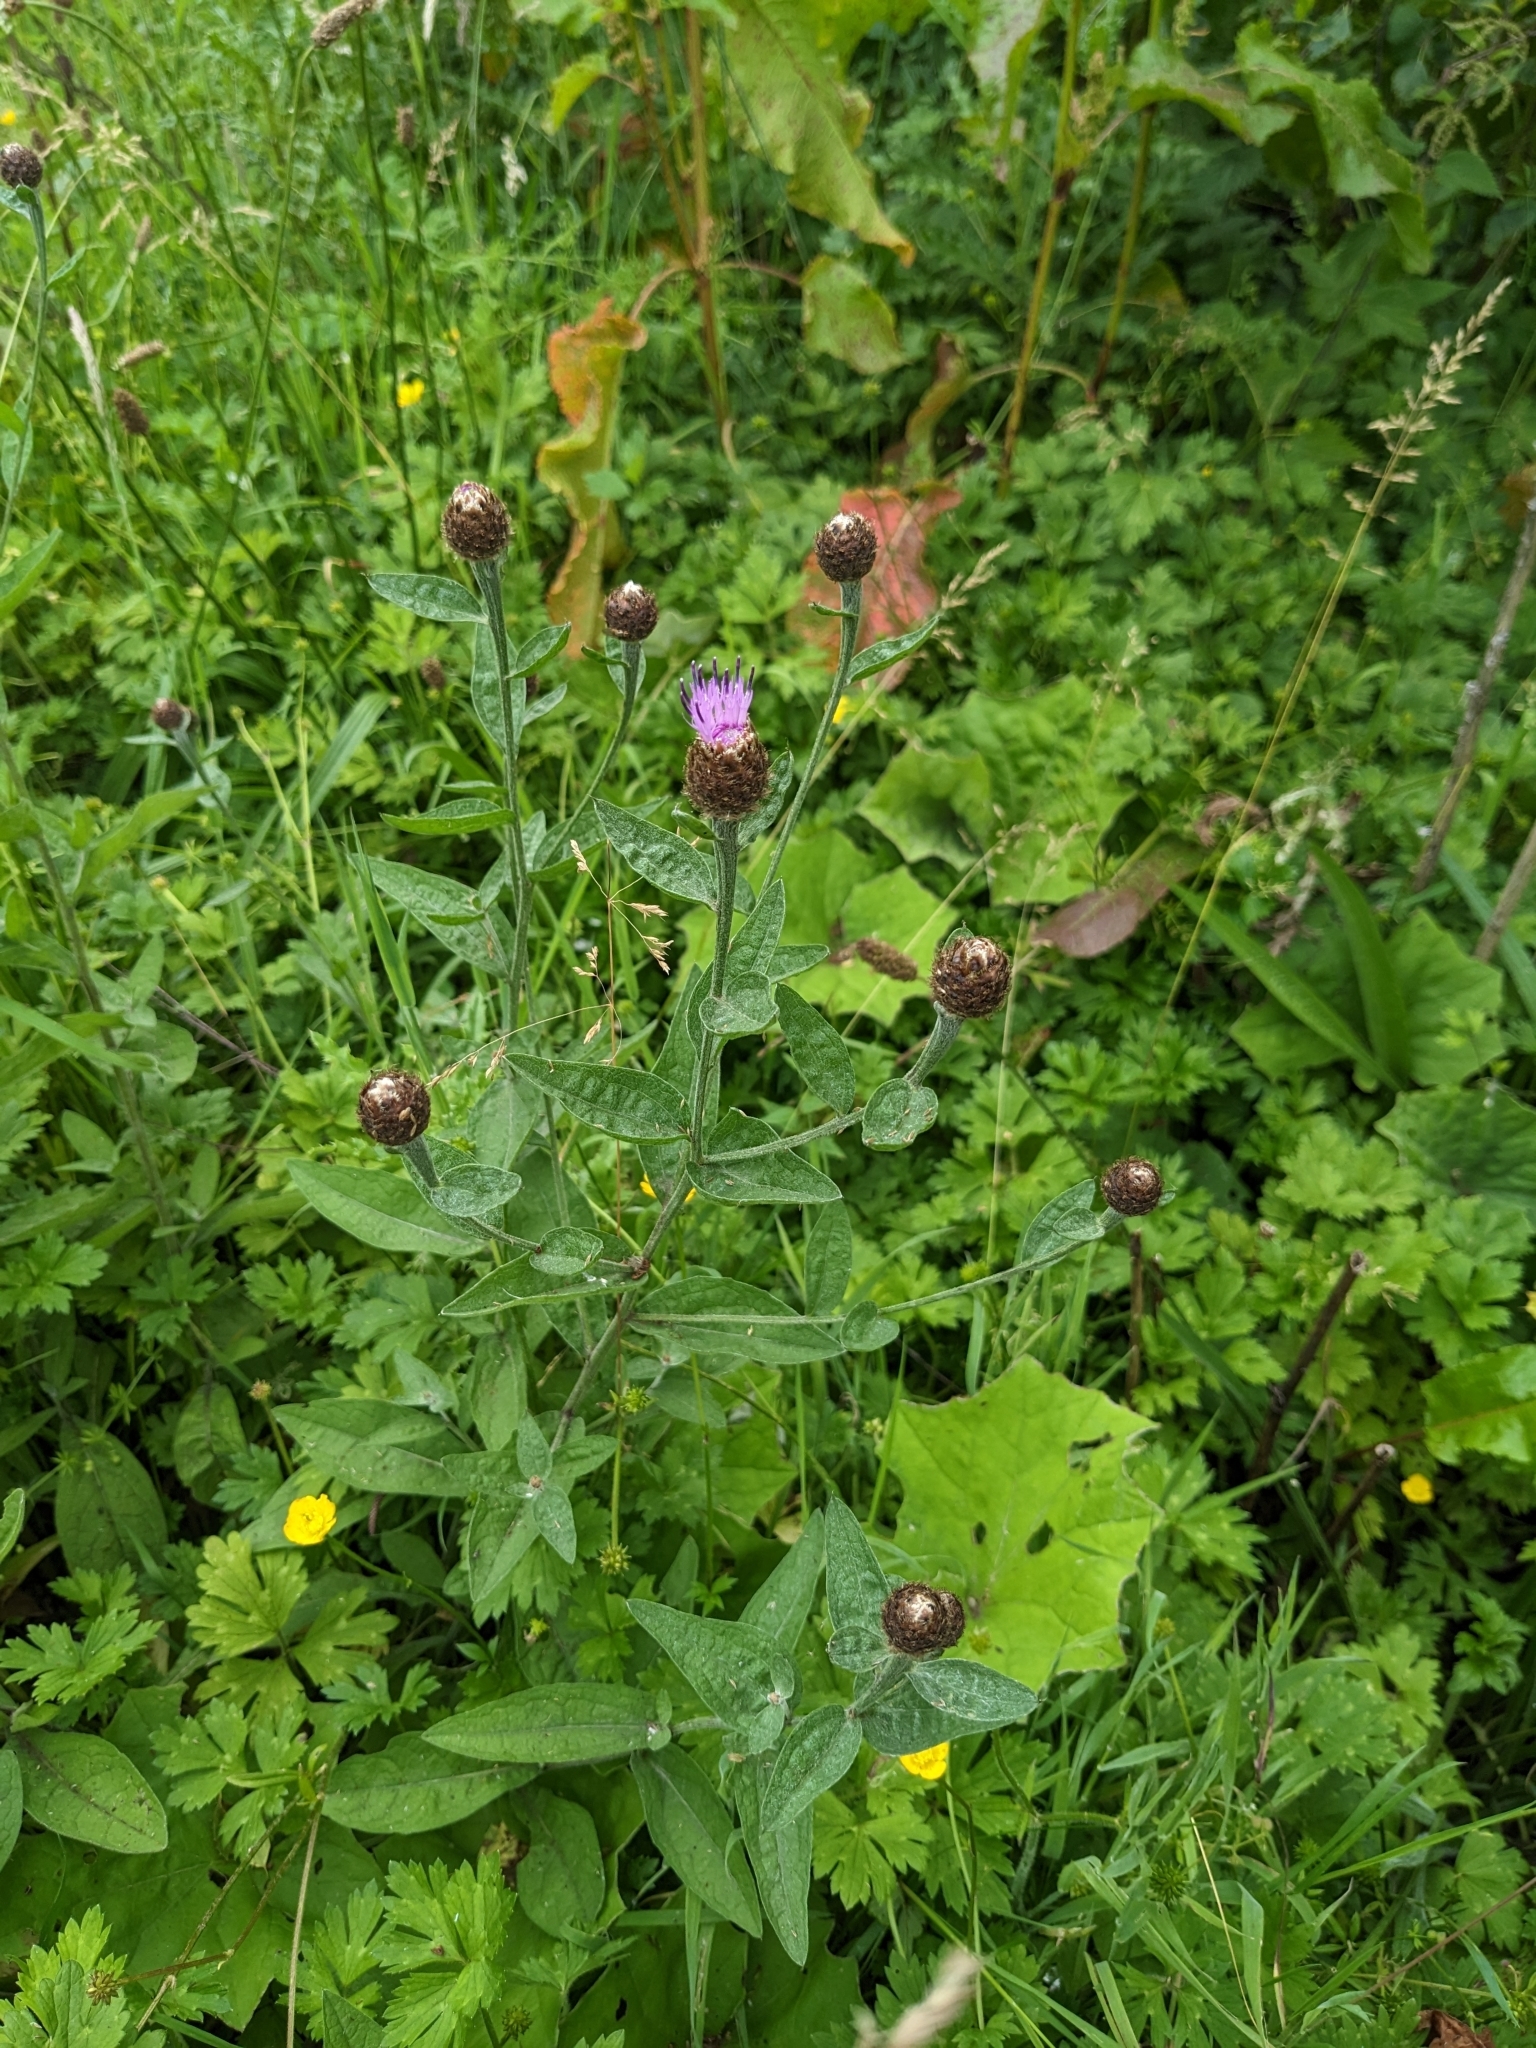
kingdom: Plantae
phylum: Tracheophyta
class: Magnoliopsida
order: Asterales
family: Asteraceae
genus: Centaurea
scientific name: Centaurea nigra
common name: Lesser knapweed
